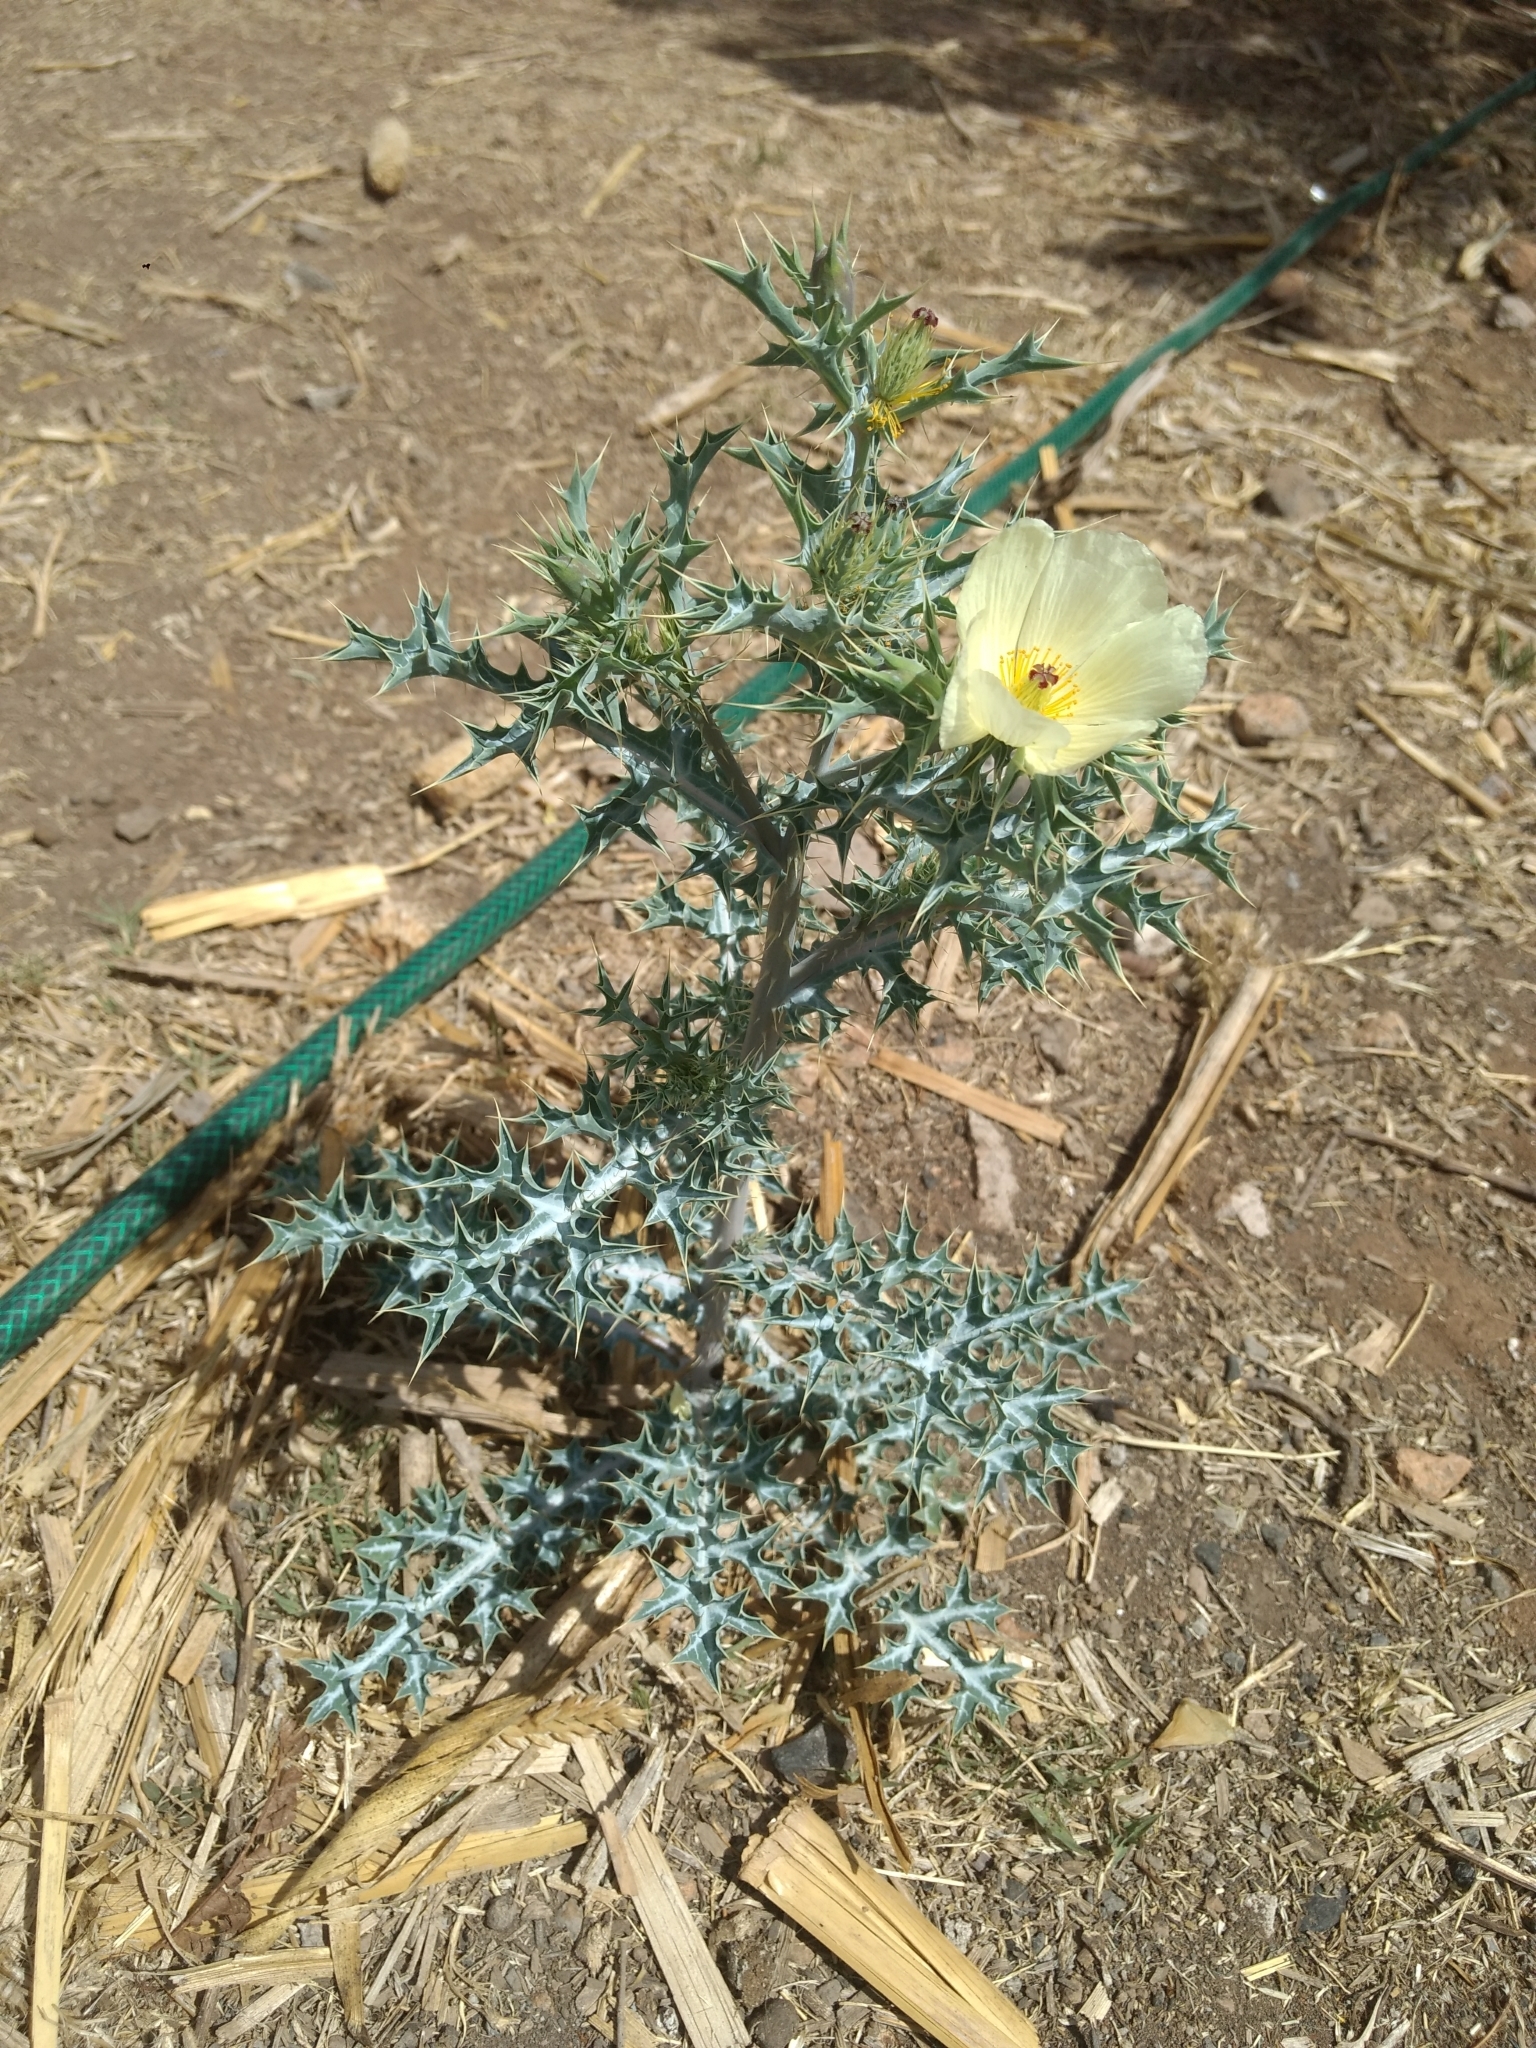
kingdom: Plantae
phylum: Tracheophyta
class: Magnoliopsida
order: Ranunculales
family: Papaveraceae
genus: Argemone
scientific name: Argemone ochroleuca
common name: White-flower mexican-poppy
